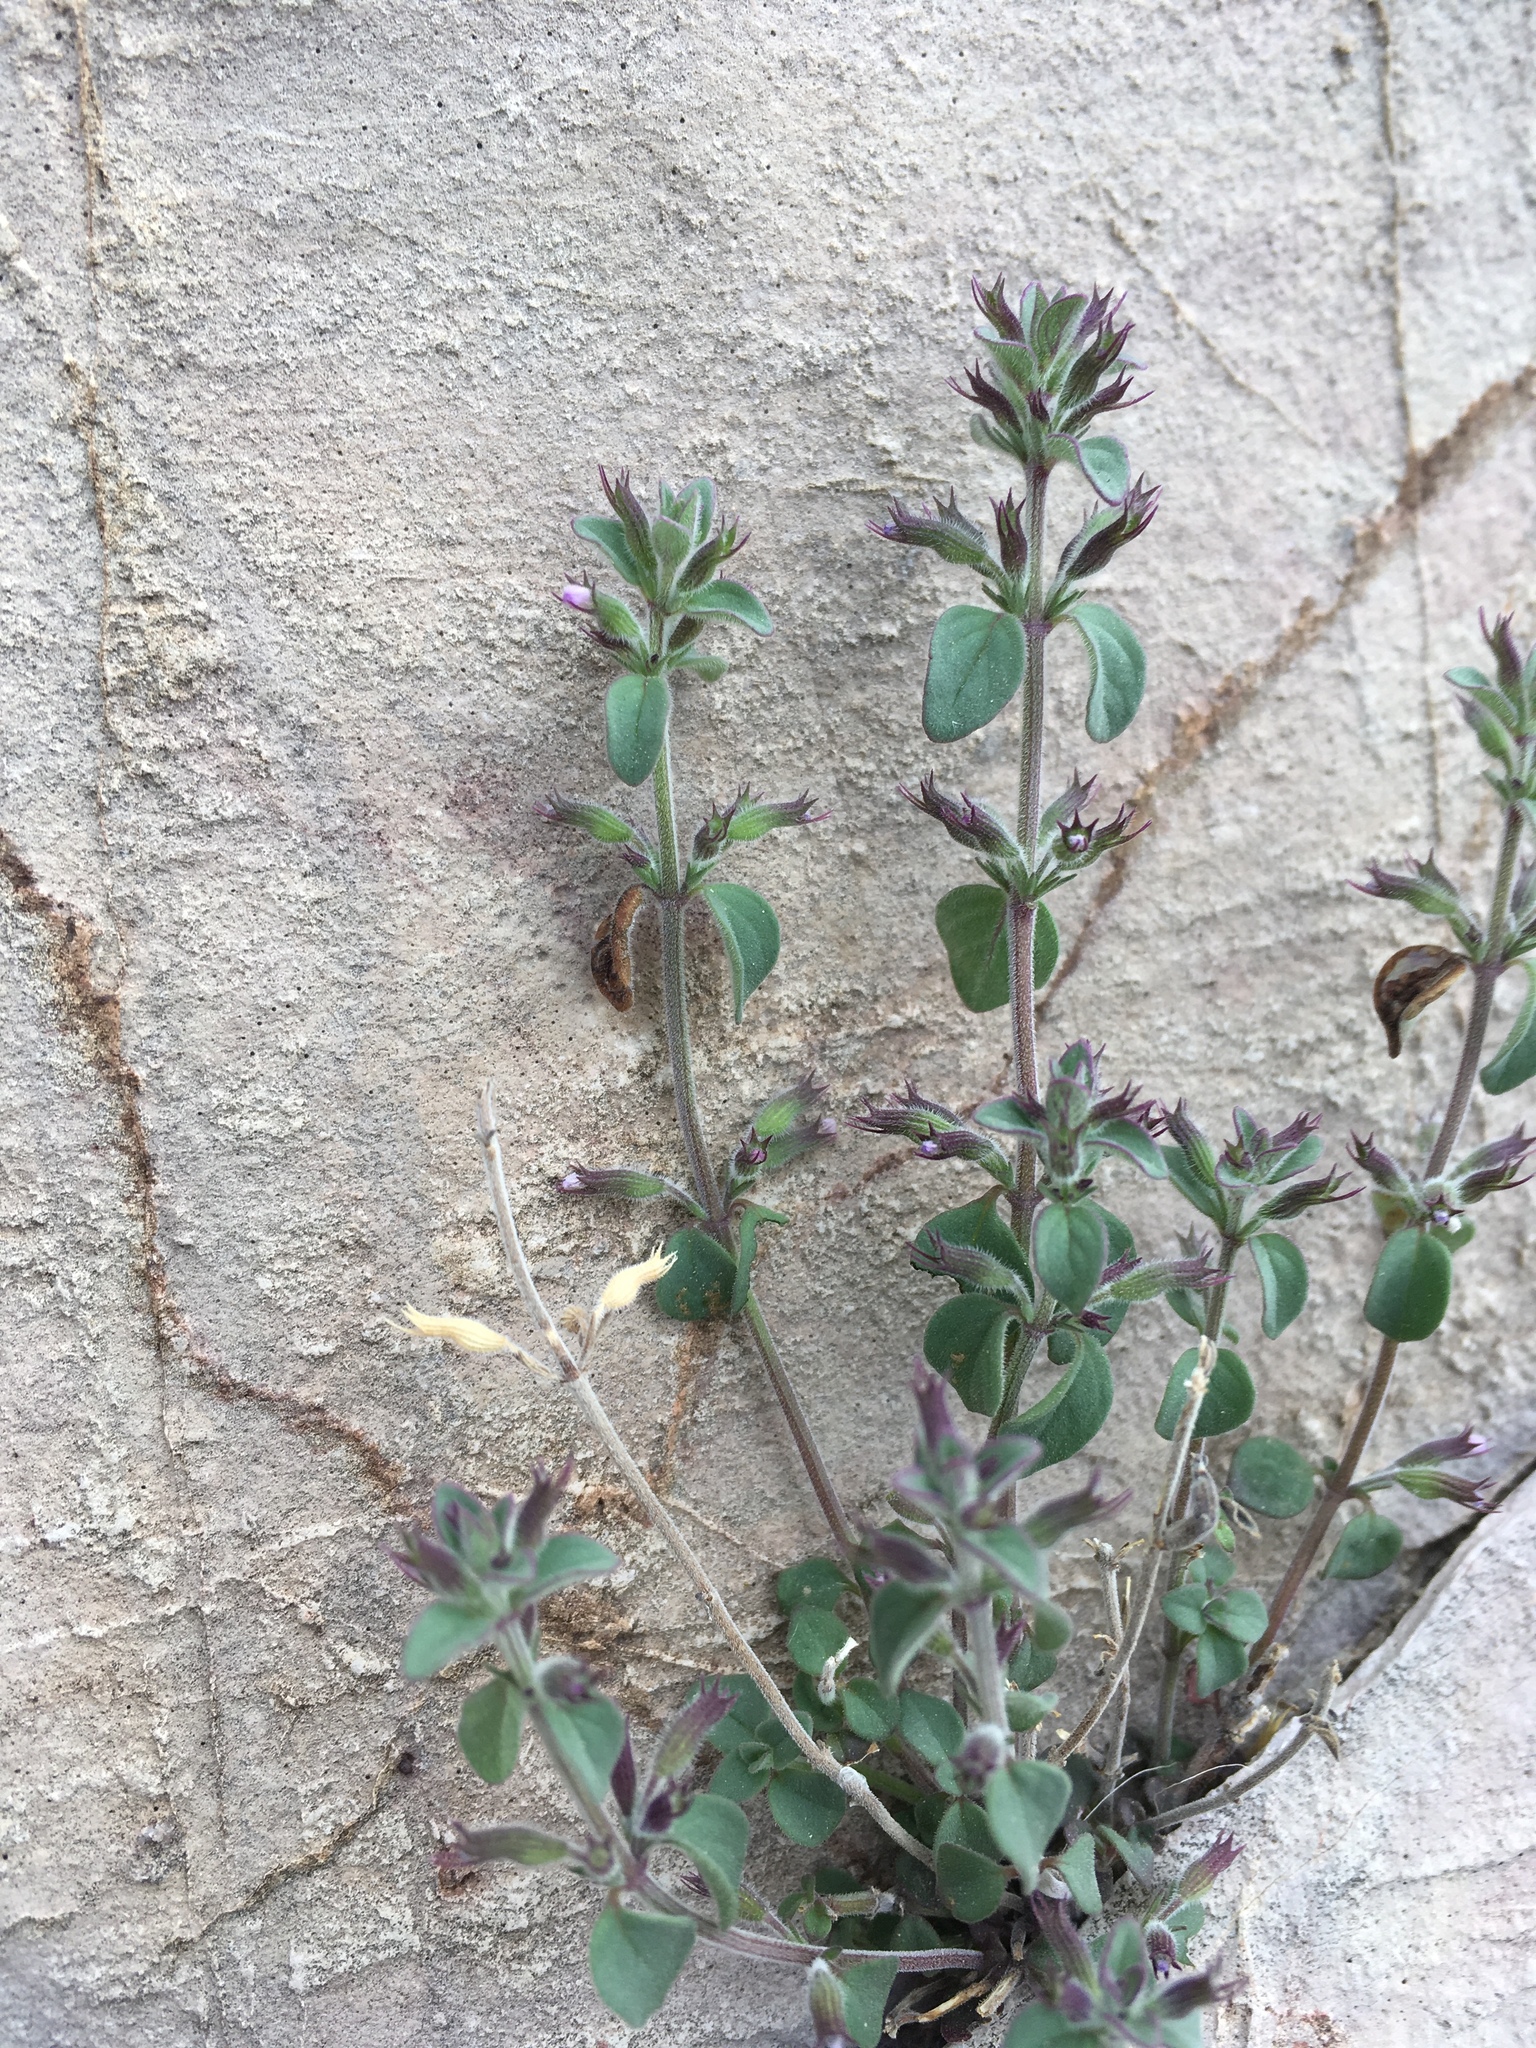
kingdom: Plantae
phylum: Tracheophyta
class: Magnoliopsida
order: Lamiales
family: Lamiaceae
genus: Hedeoma
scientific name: Hedeoma nana
